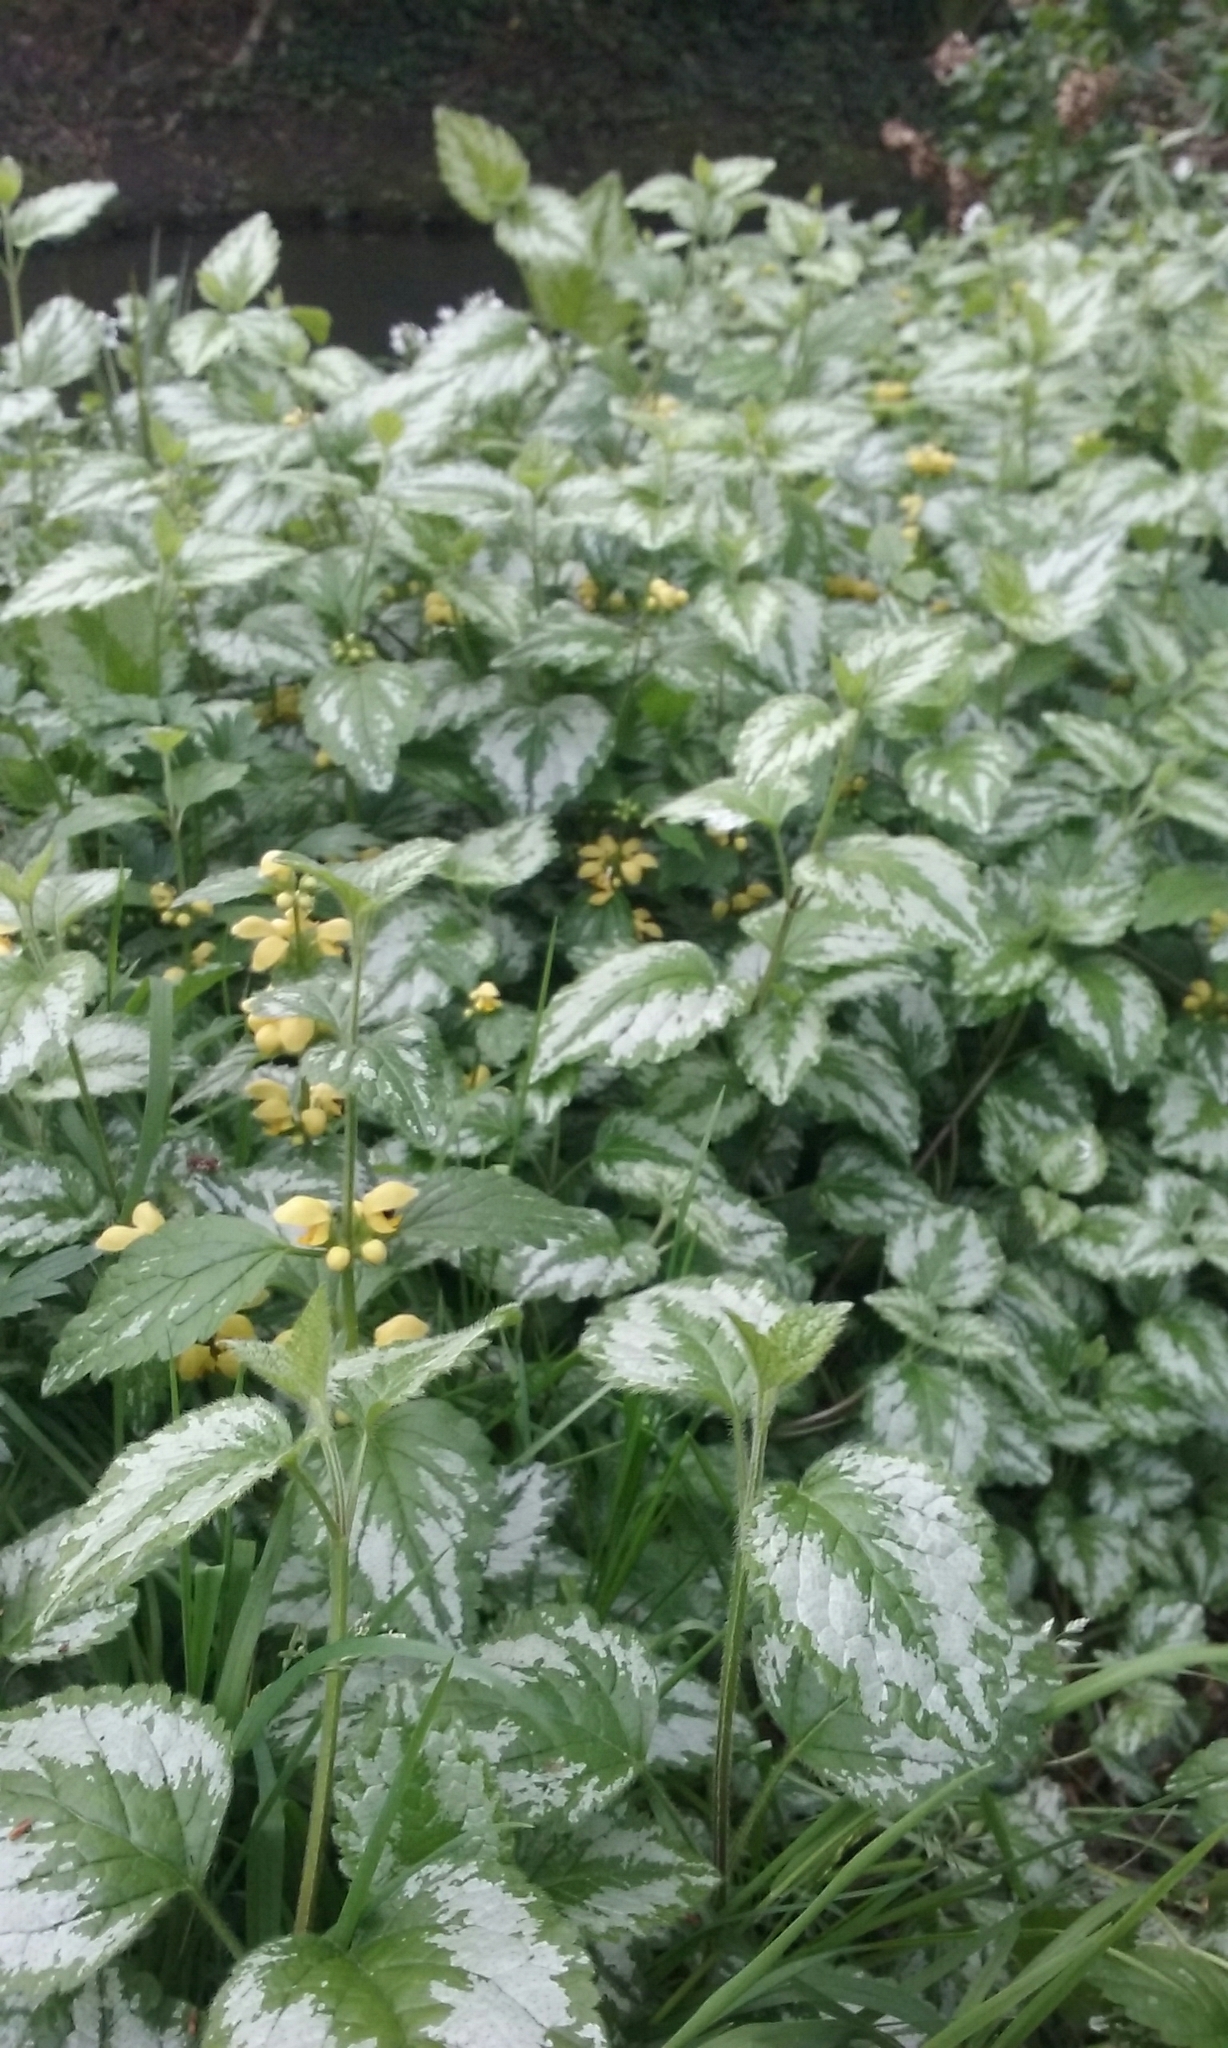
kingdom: Plantae
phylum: Tracheophyta
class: Magnoliopsida
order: Lamiales
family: Lamiaceae
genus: Lamium
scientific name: Lamium galeobdolon
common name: Yellow archangel
